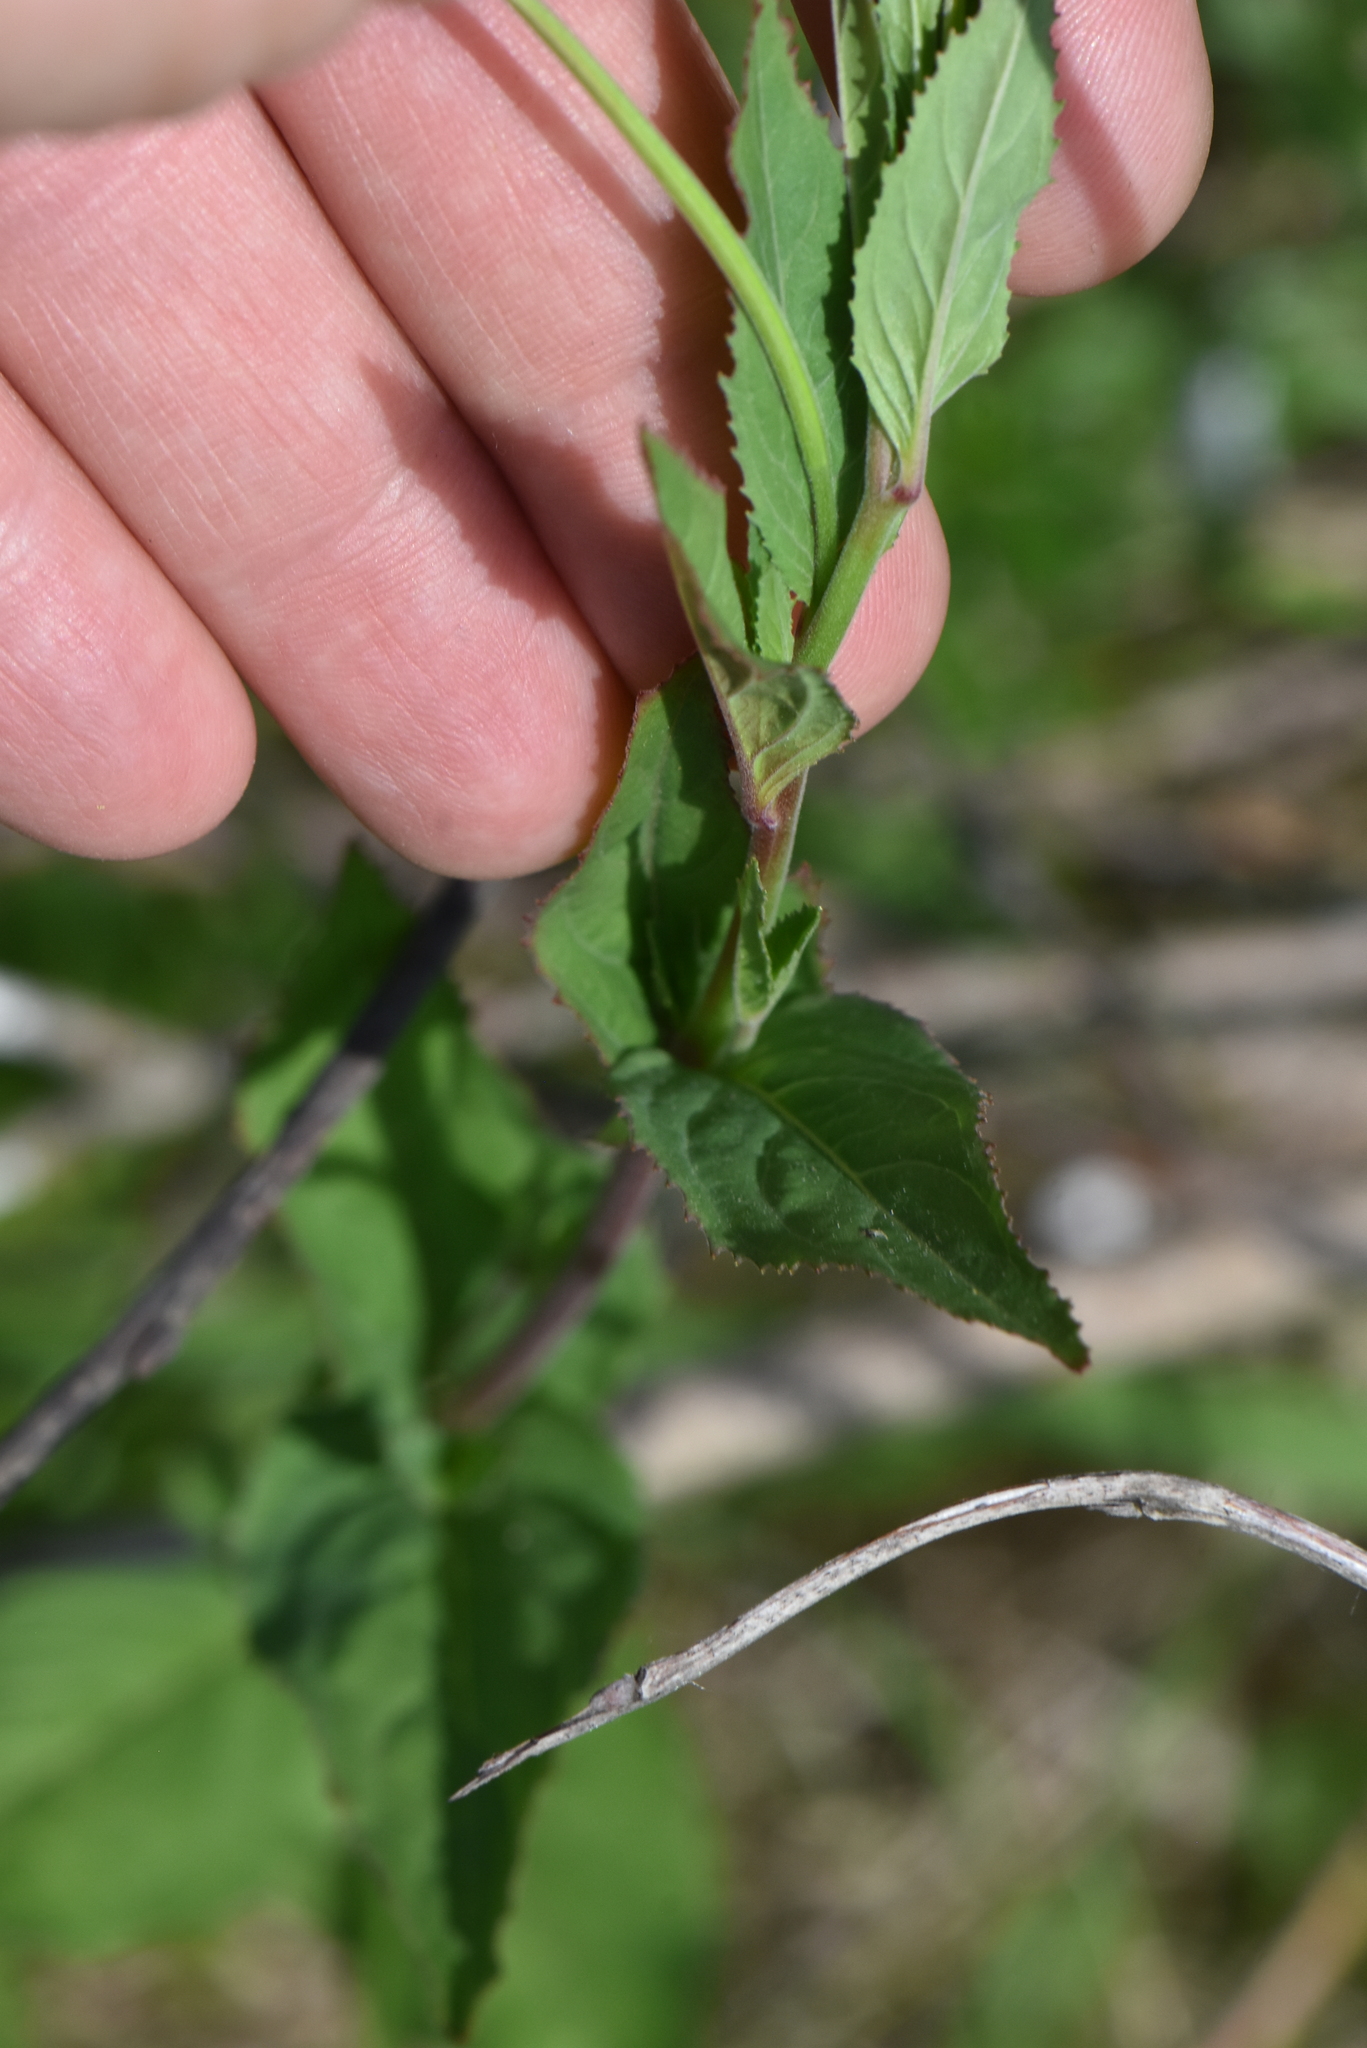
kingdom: Plantae
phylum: Tracheophyta
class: Magnoliopsida
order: Myrtales
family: Onagraceae
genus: Epilobium
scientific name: Epilobium montanum
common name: Broad-leaved willowherb
